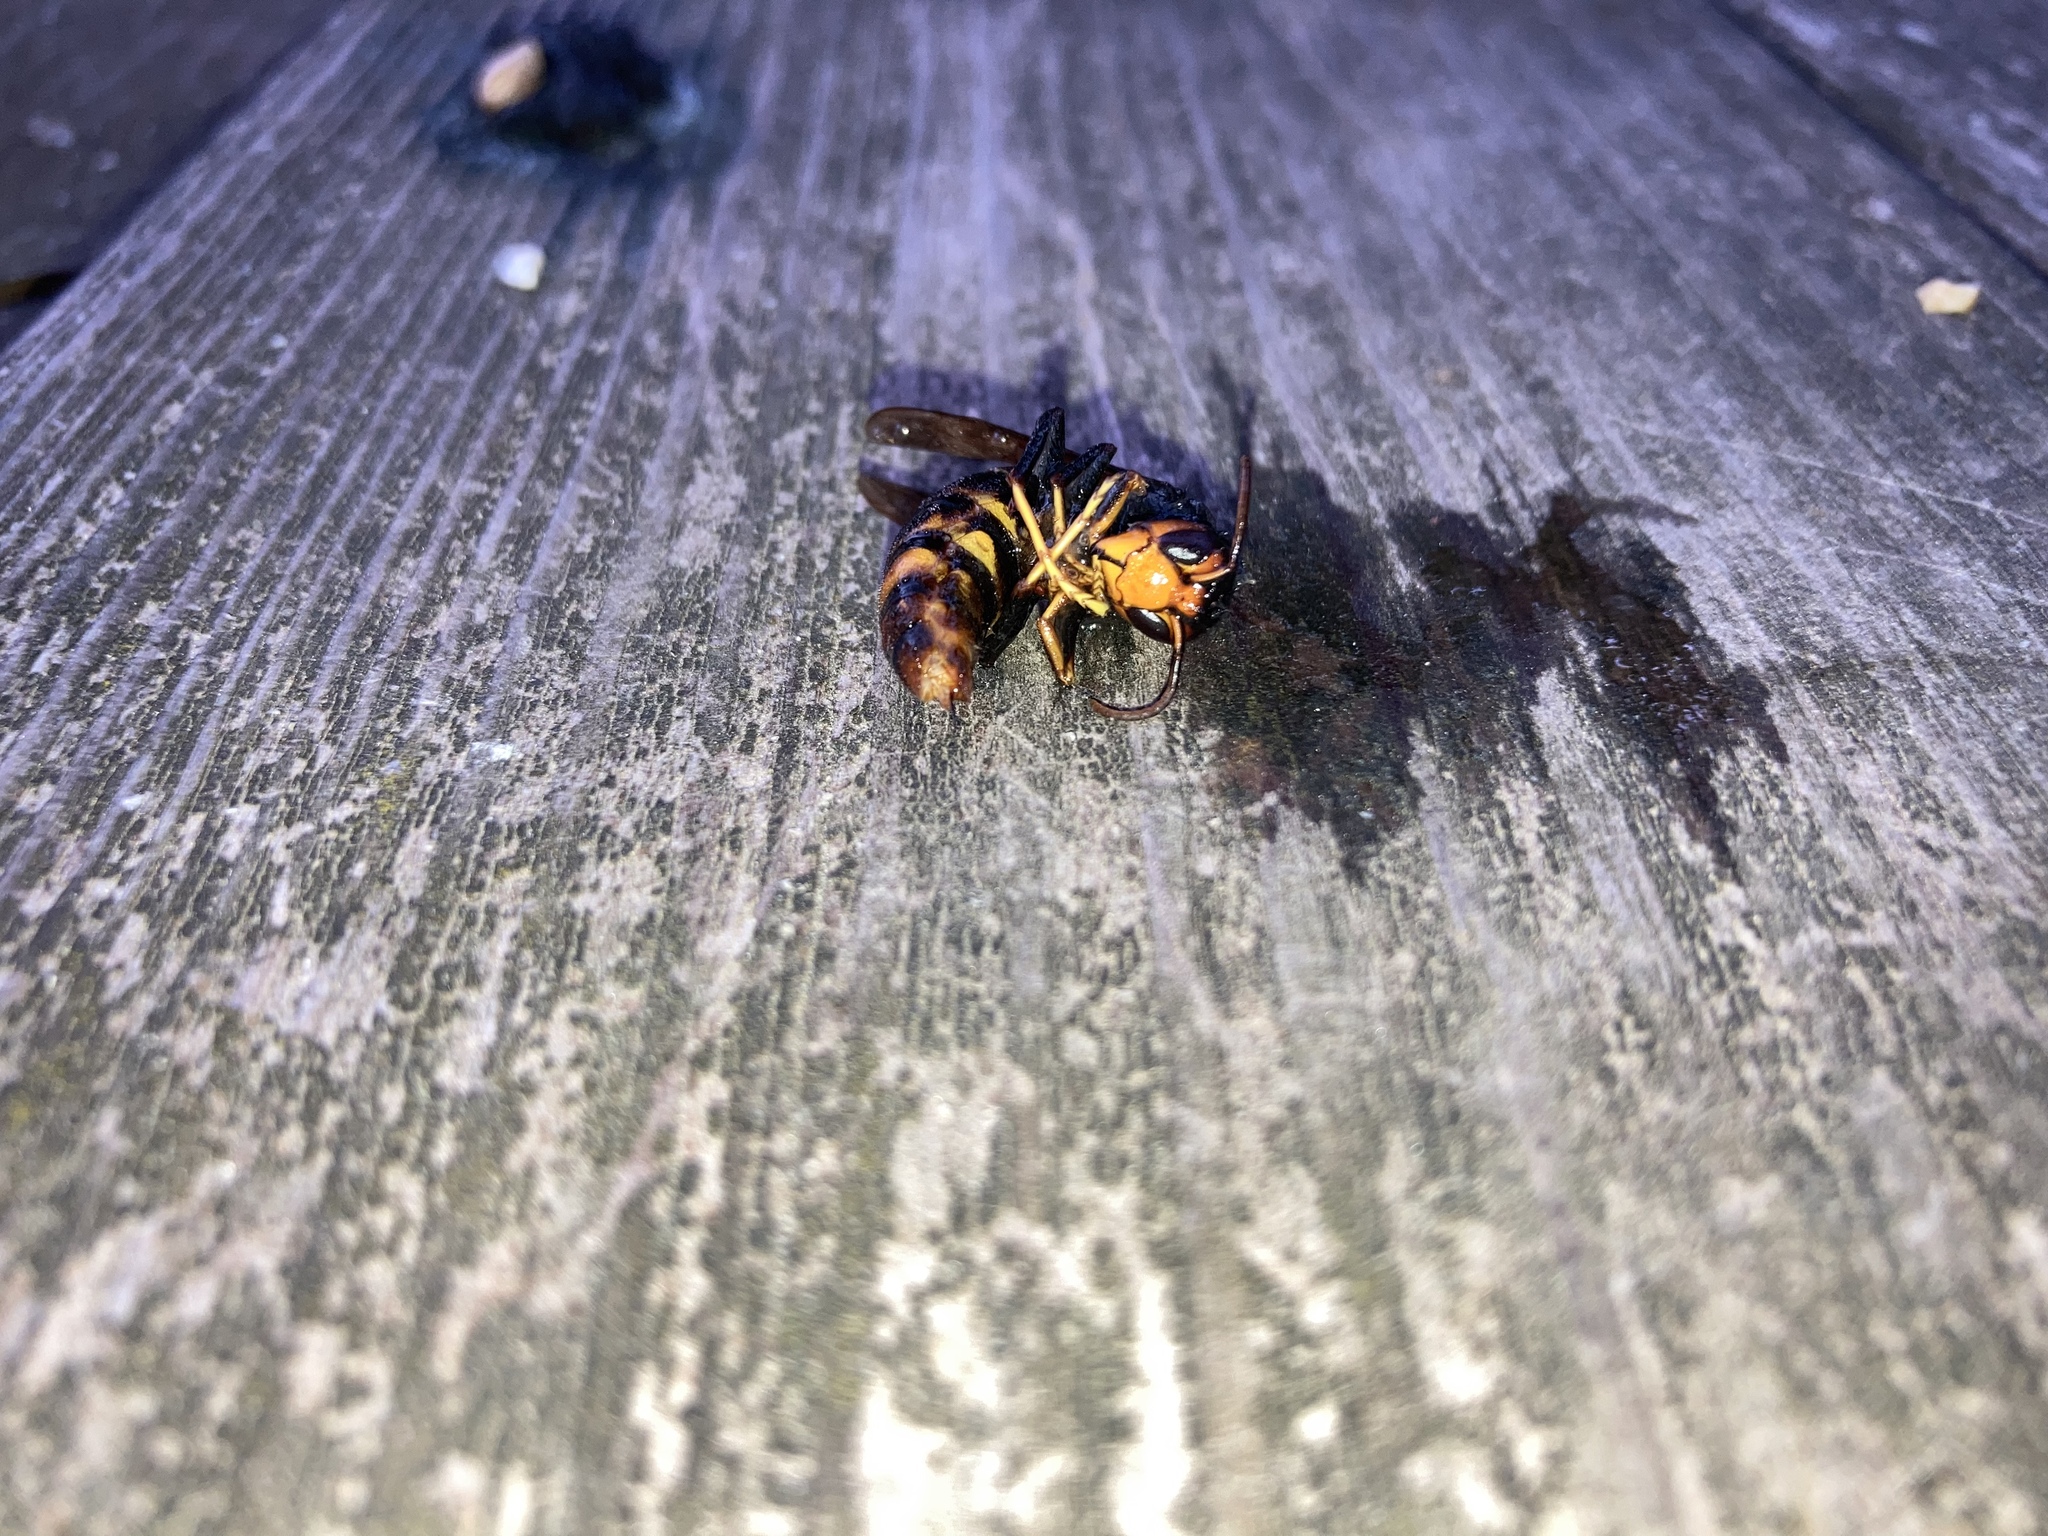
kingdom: Animalia
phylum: Arthropoda
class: Insecta
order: Hymenoptera
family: Vespidae
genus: Vespa
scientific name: Vespa velutina
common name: Asian hornet
